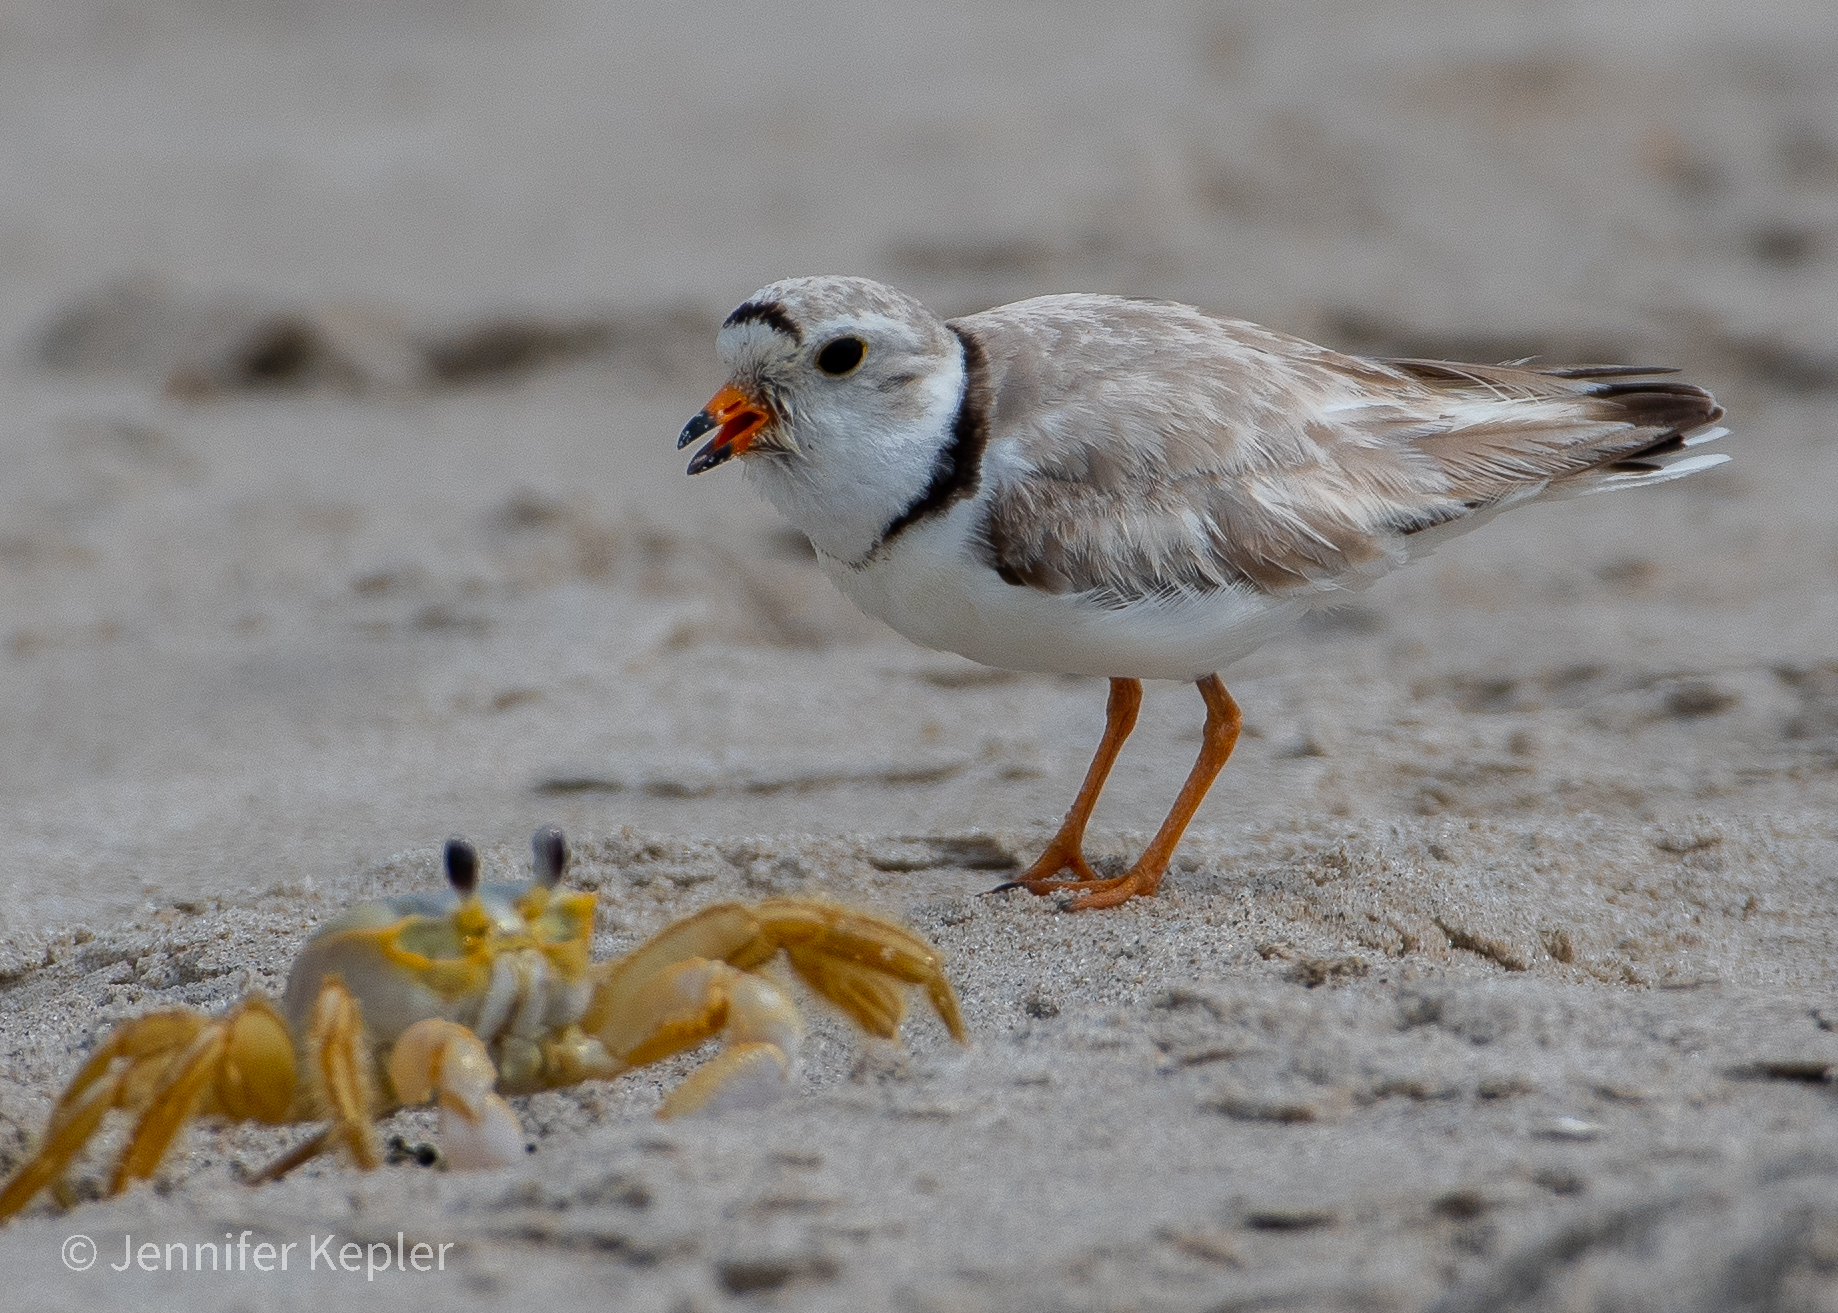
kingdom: Animalia
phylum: Arthropoda
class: Malacostraca
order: Decapoda
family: Ocypodidae
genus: Ocypode
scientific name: Ocypode quadrata
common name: Ghost crab
